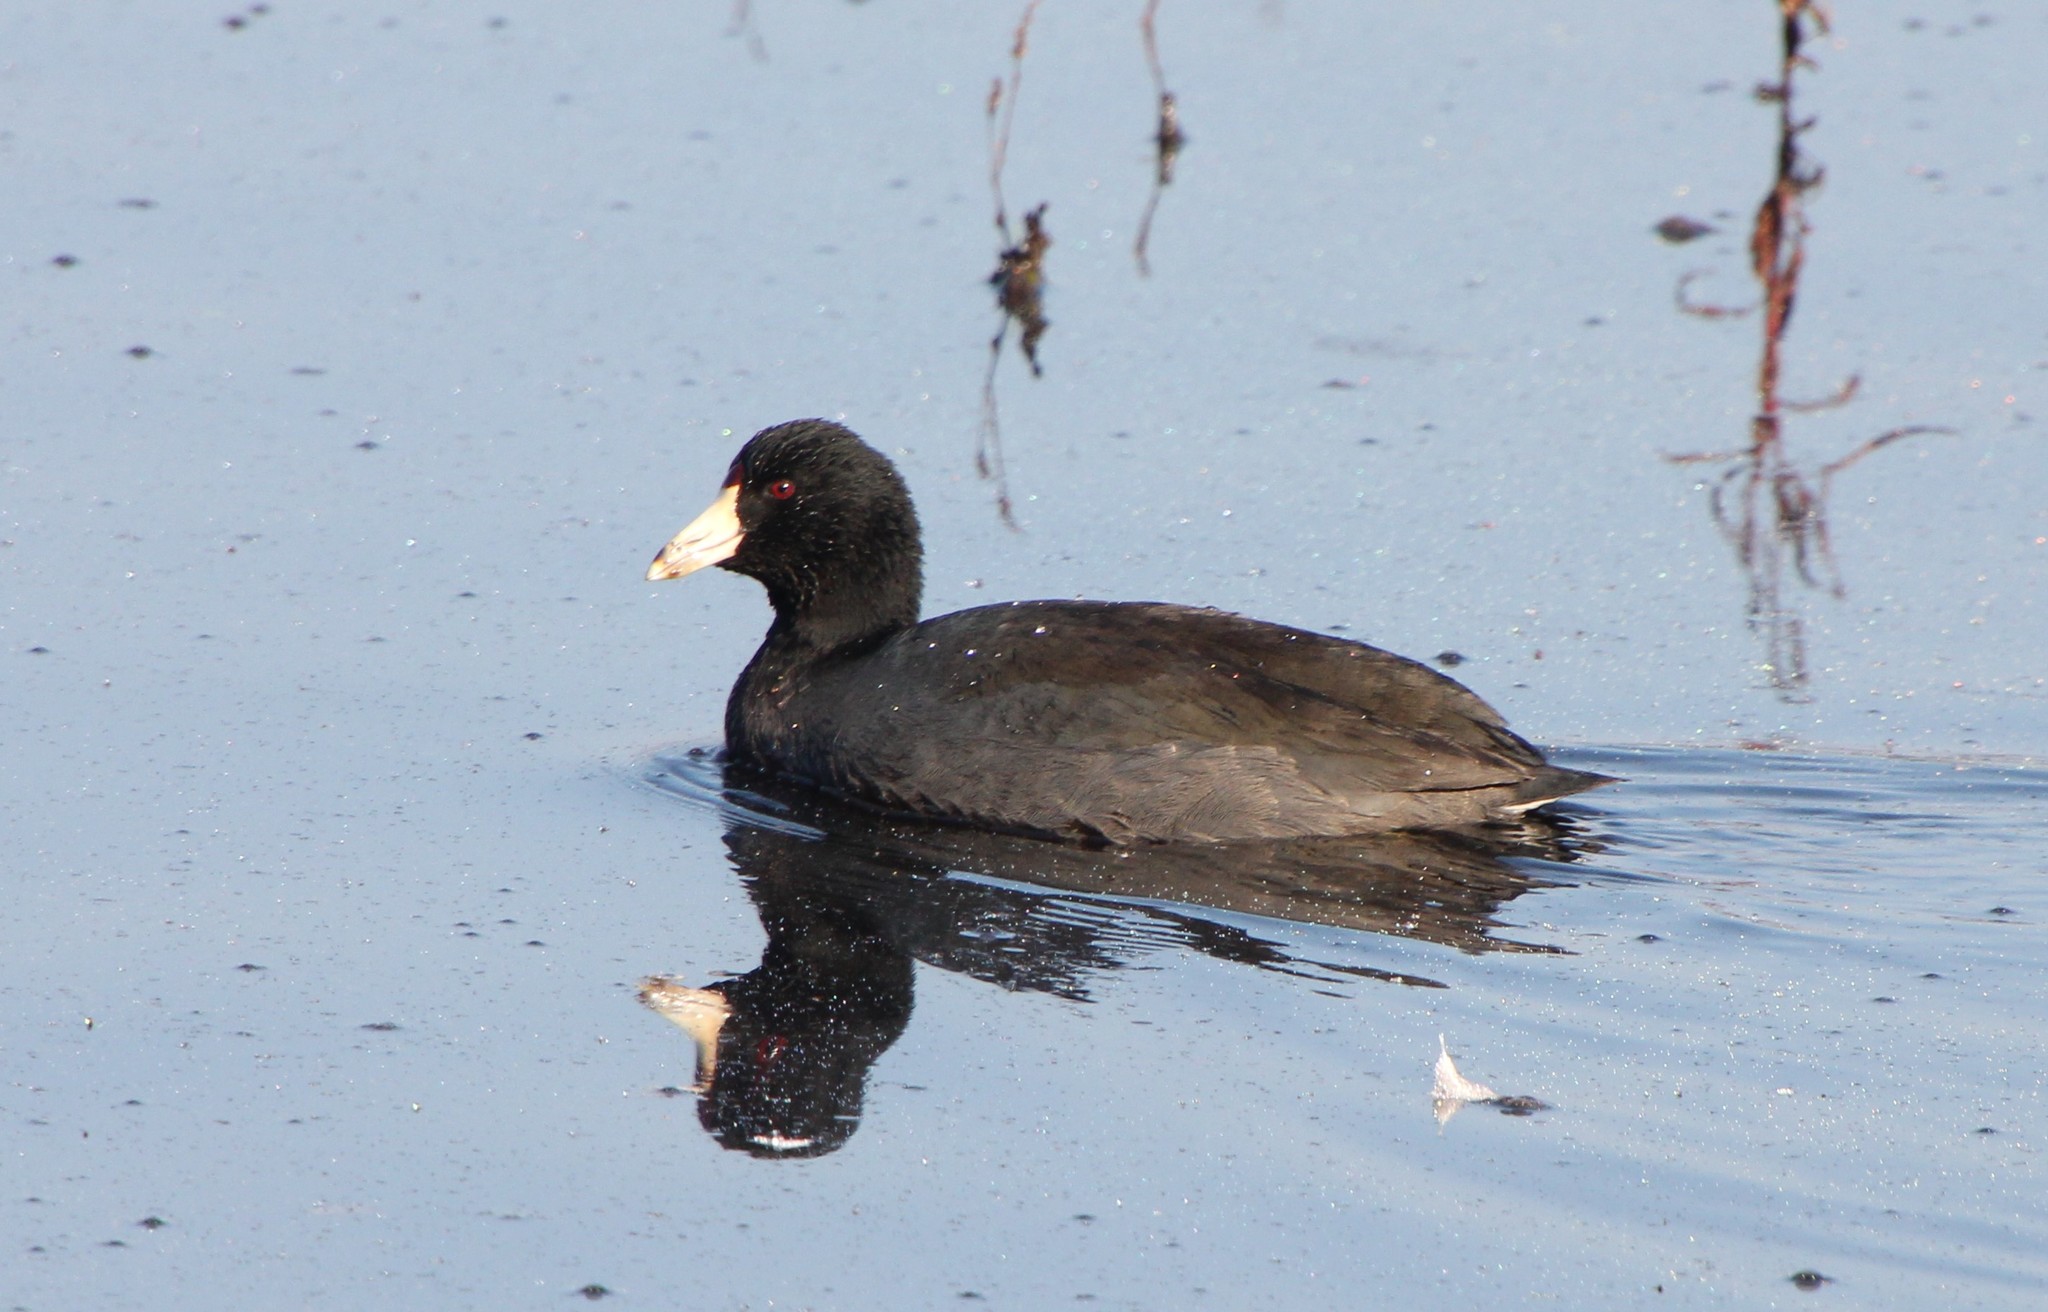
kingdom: Animalia
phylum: Chordata
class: Aves
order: Gruiformes
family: Rallidae
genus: Fulica
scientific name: Fulica americana
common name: American coot
